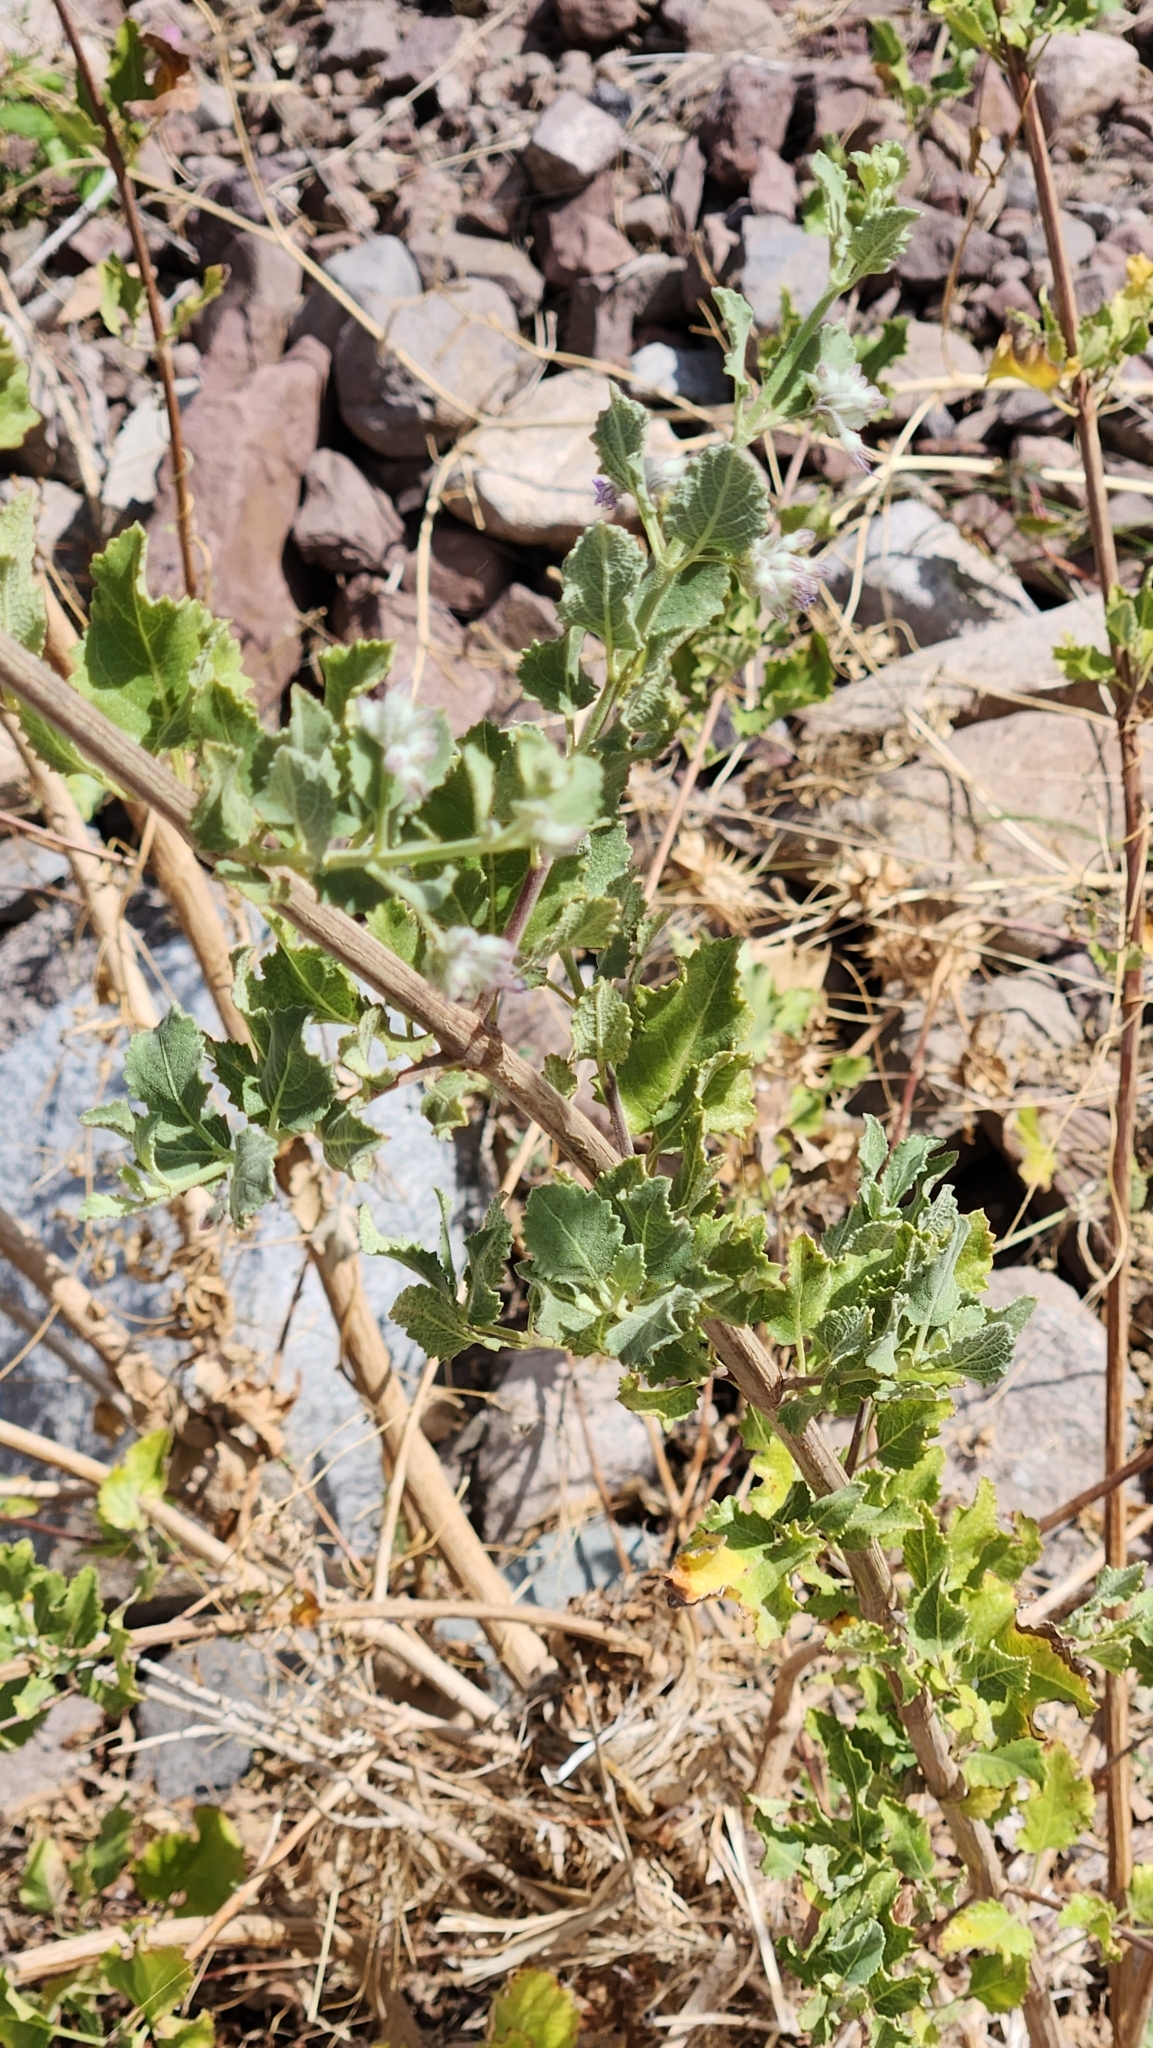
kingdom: Plantae
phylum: Tracheophyta
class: Magnoliopsida
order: Lamiales
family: Lamiaceae
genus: Condea
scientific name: Condea emoryi
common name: Chia
